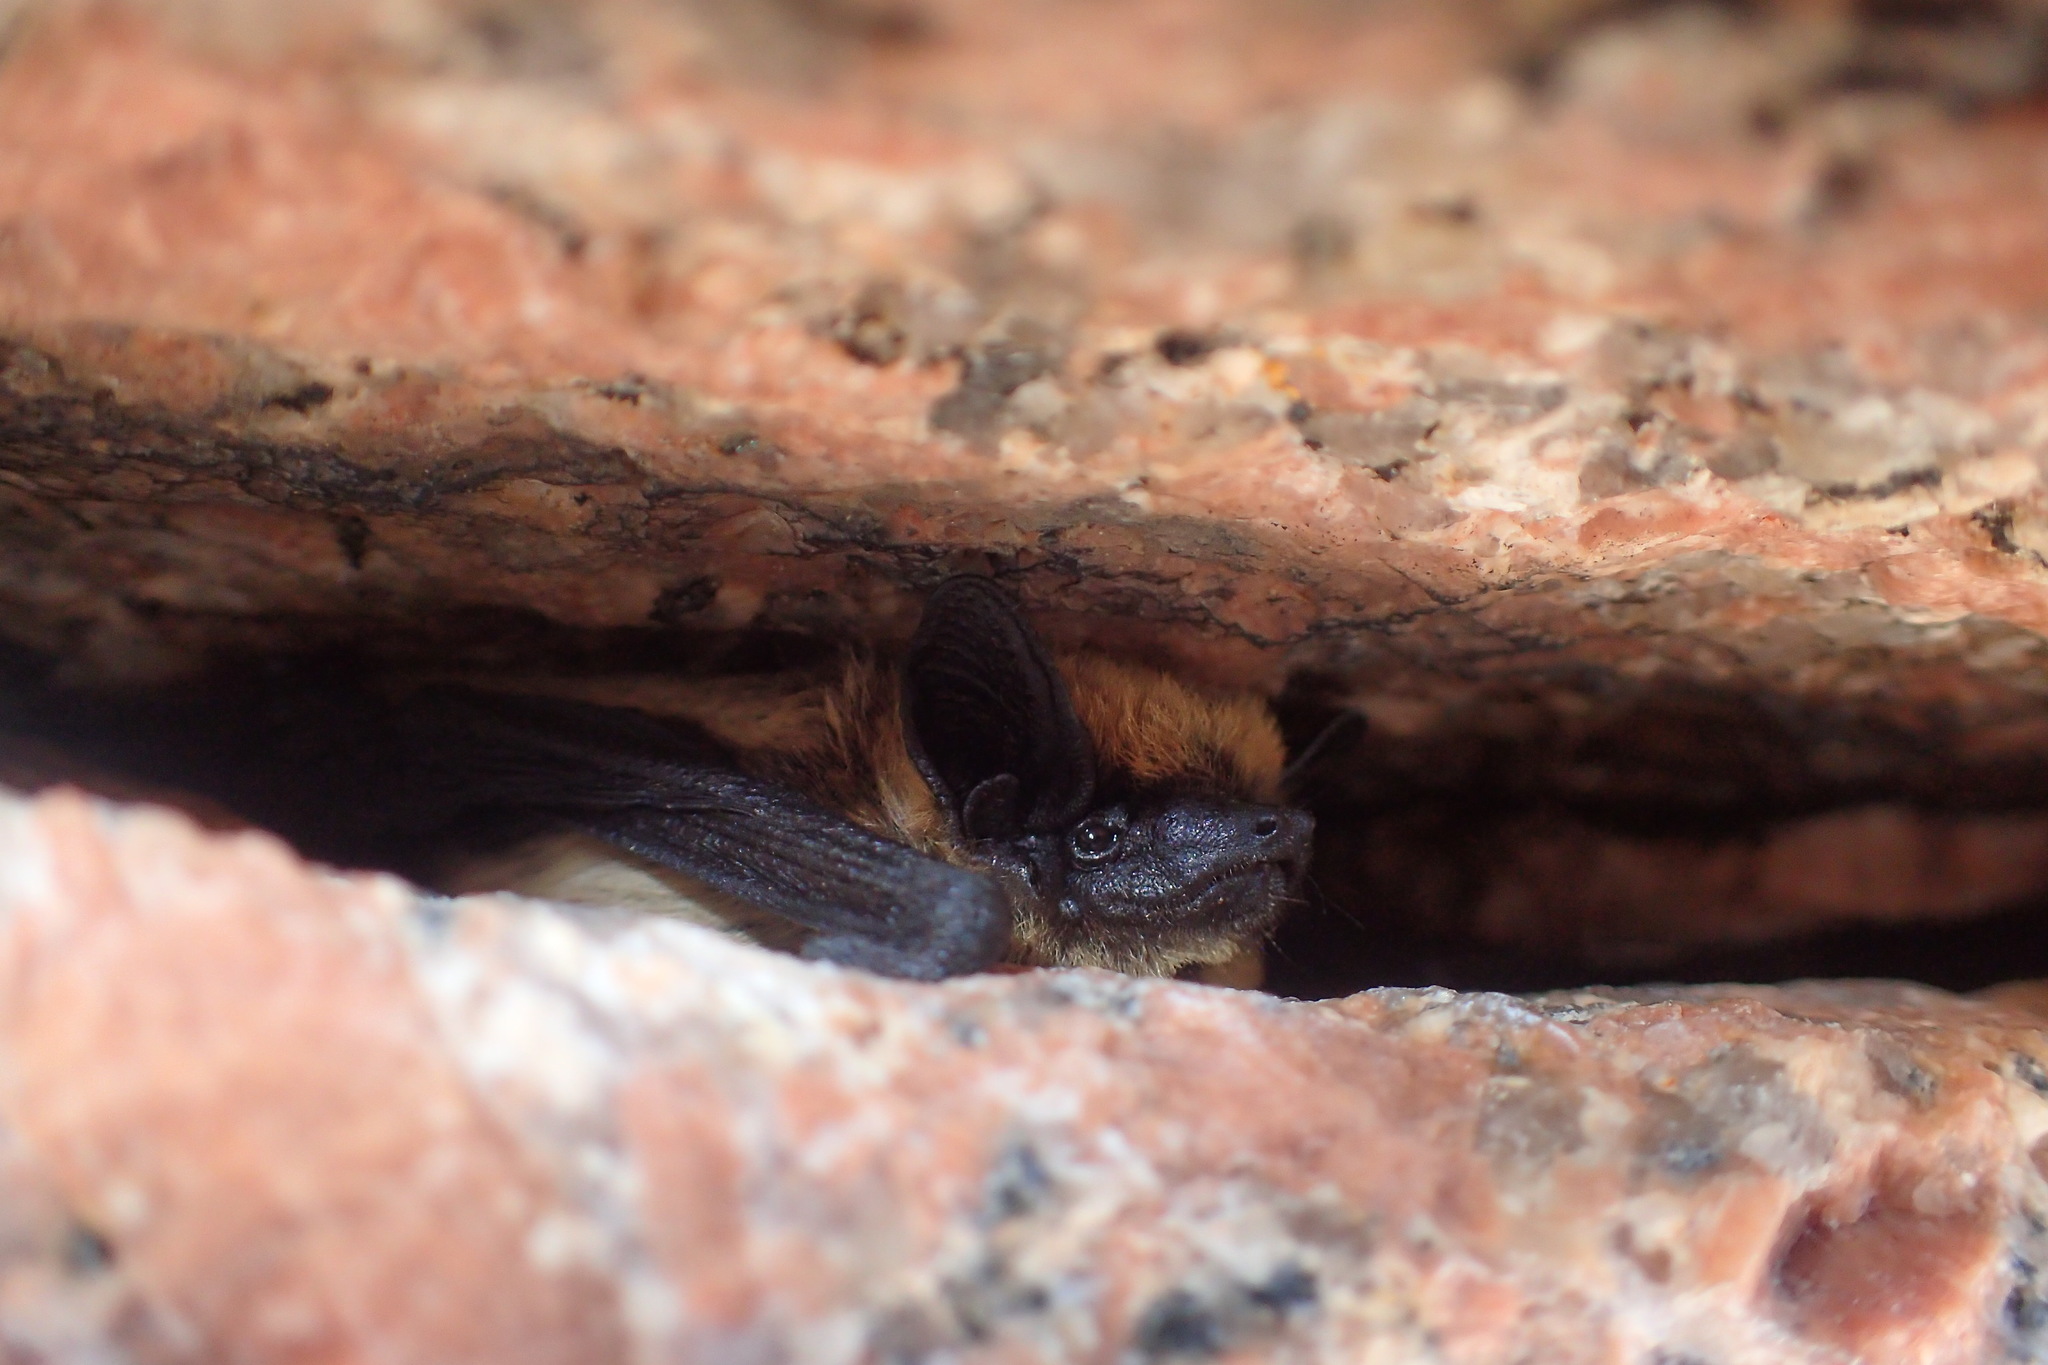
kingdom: Animalia
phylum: Chordata
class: Mammalia
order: Chiroptera
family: Vespertilionidae
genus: Parastrellus
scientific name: Parastrellus hesperus
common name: Canyon bat
